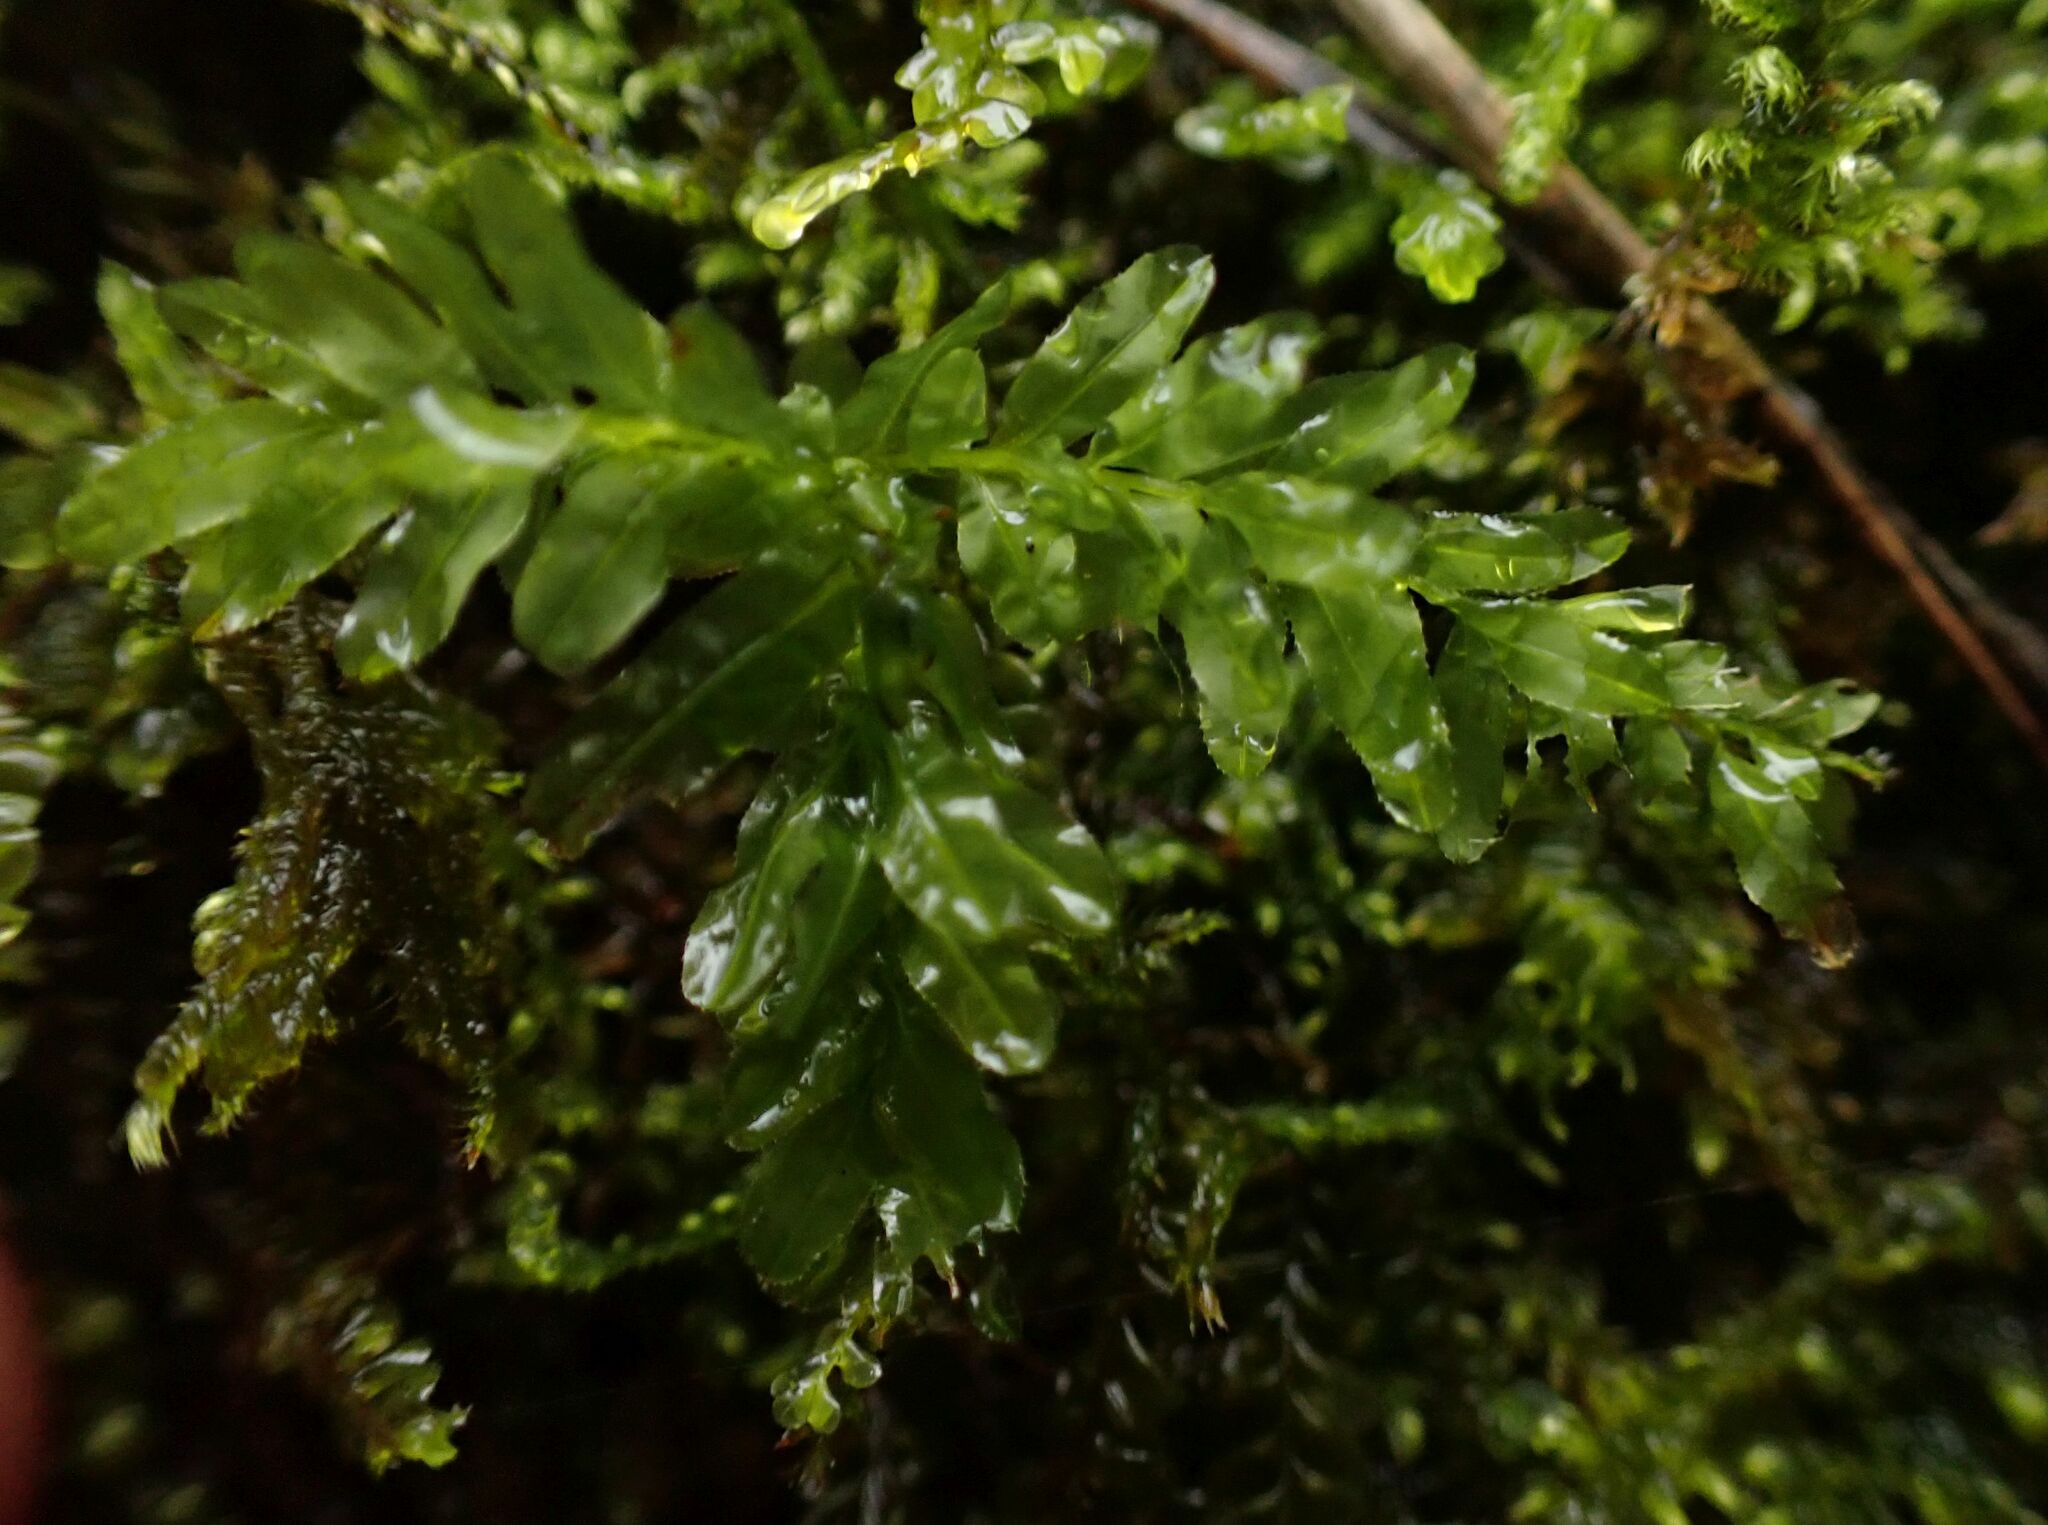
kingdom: Plantae
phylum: Bryophyta
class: Bryopsida
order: Bryales
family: Mniaceae
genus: Plagiomnium
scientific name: Plagiomnium undulatum
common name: Hart's-tongue thyme-moss
